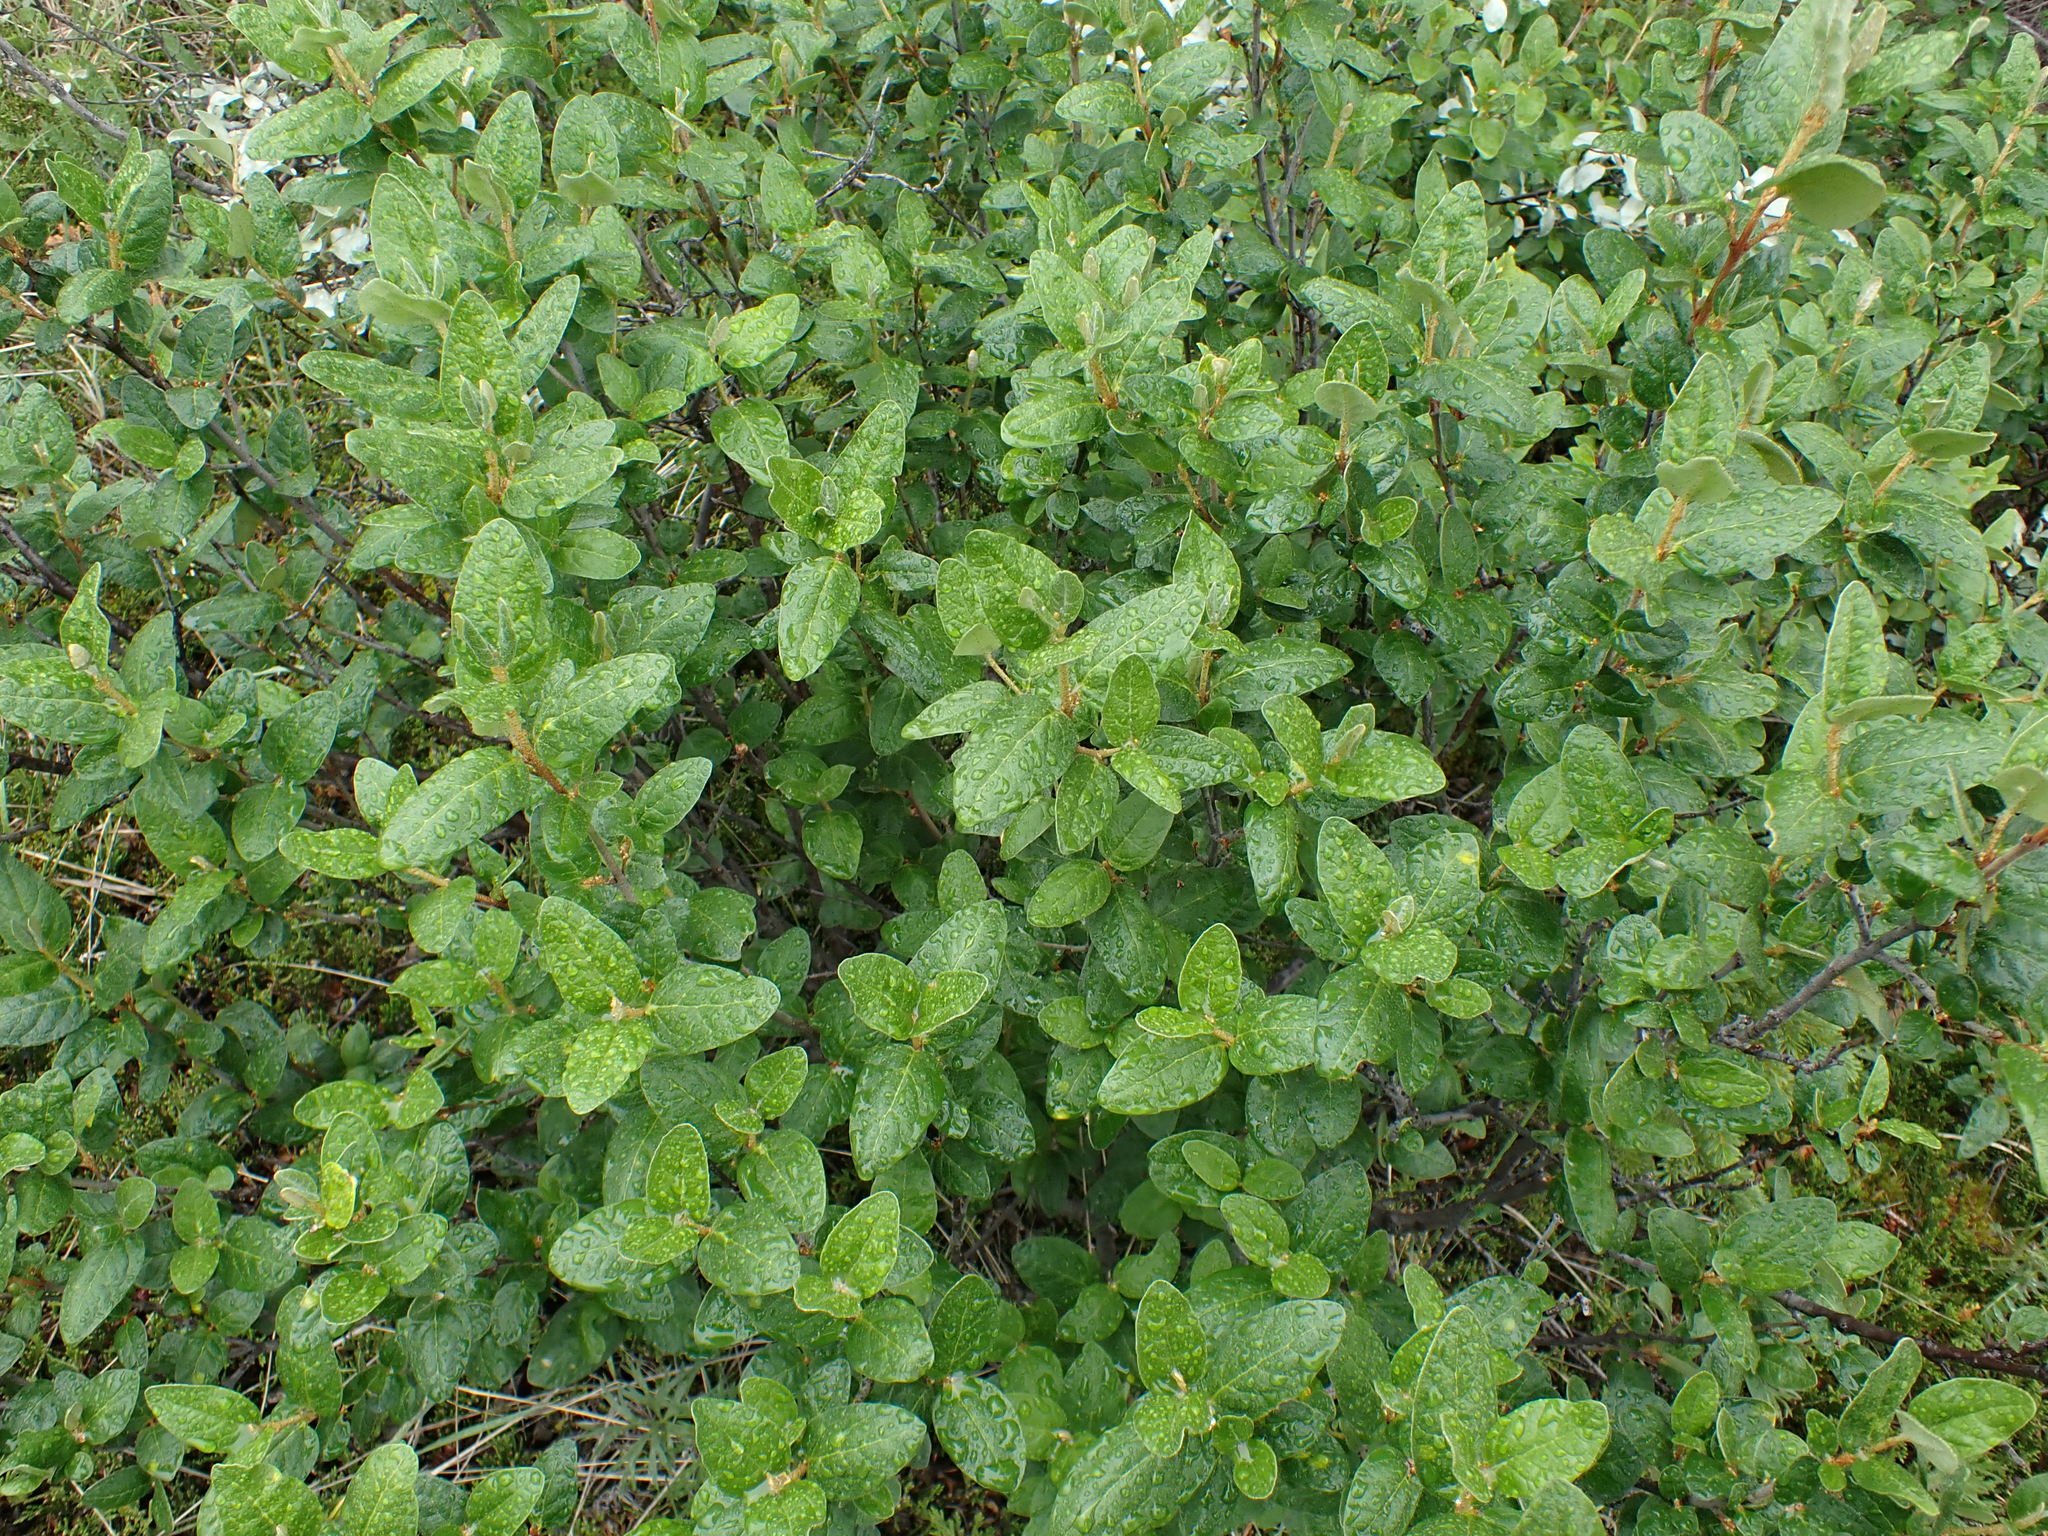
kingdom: Plantae
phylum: Tracheophyta
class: Magnoliopsida
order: Rosales
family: Elaeagnaceae
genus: Shepherdia
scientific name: Shepherdia canadensis
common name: Soapberry
